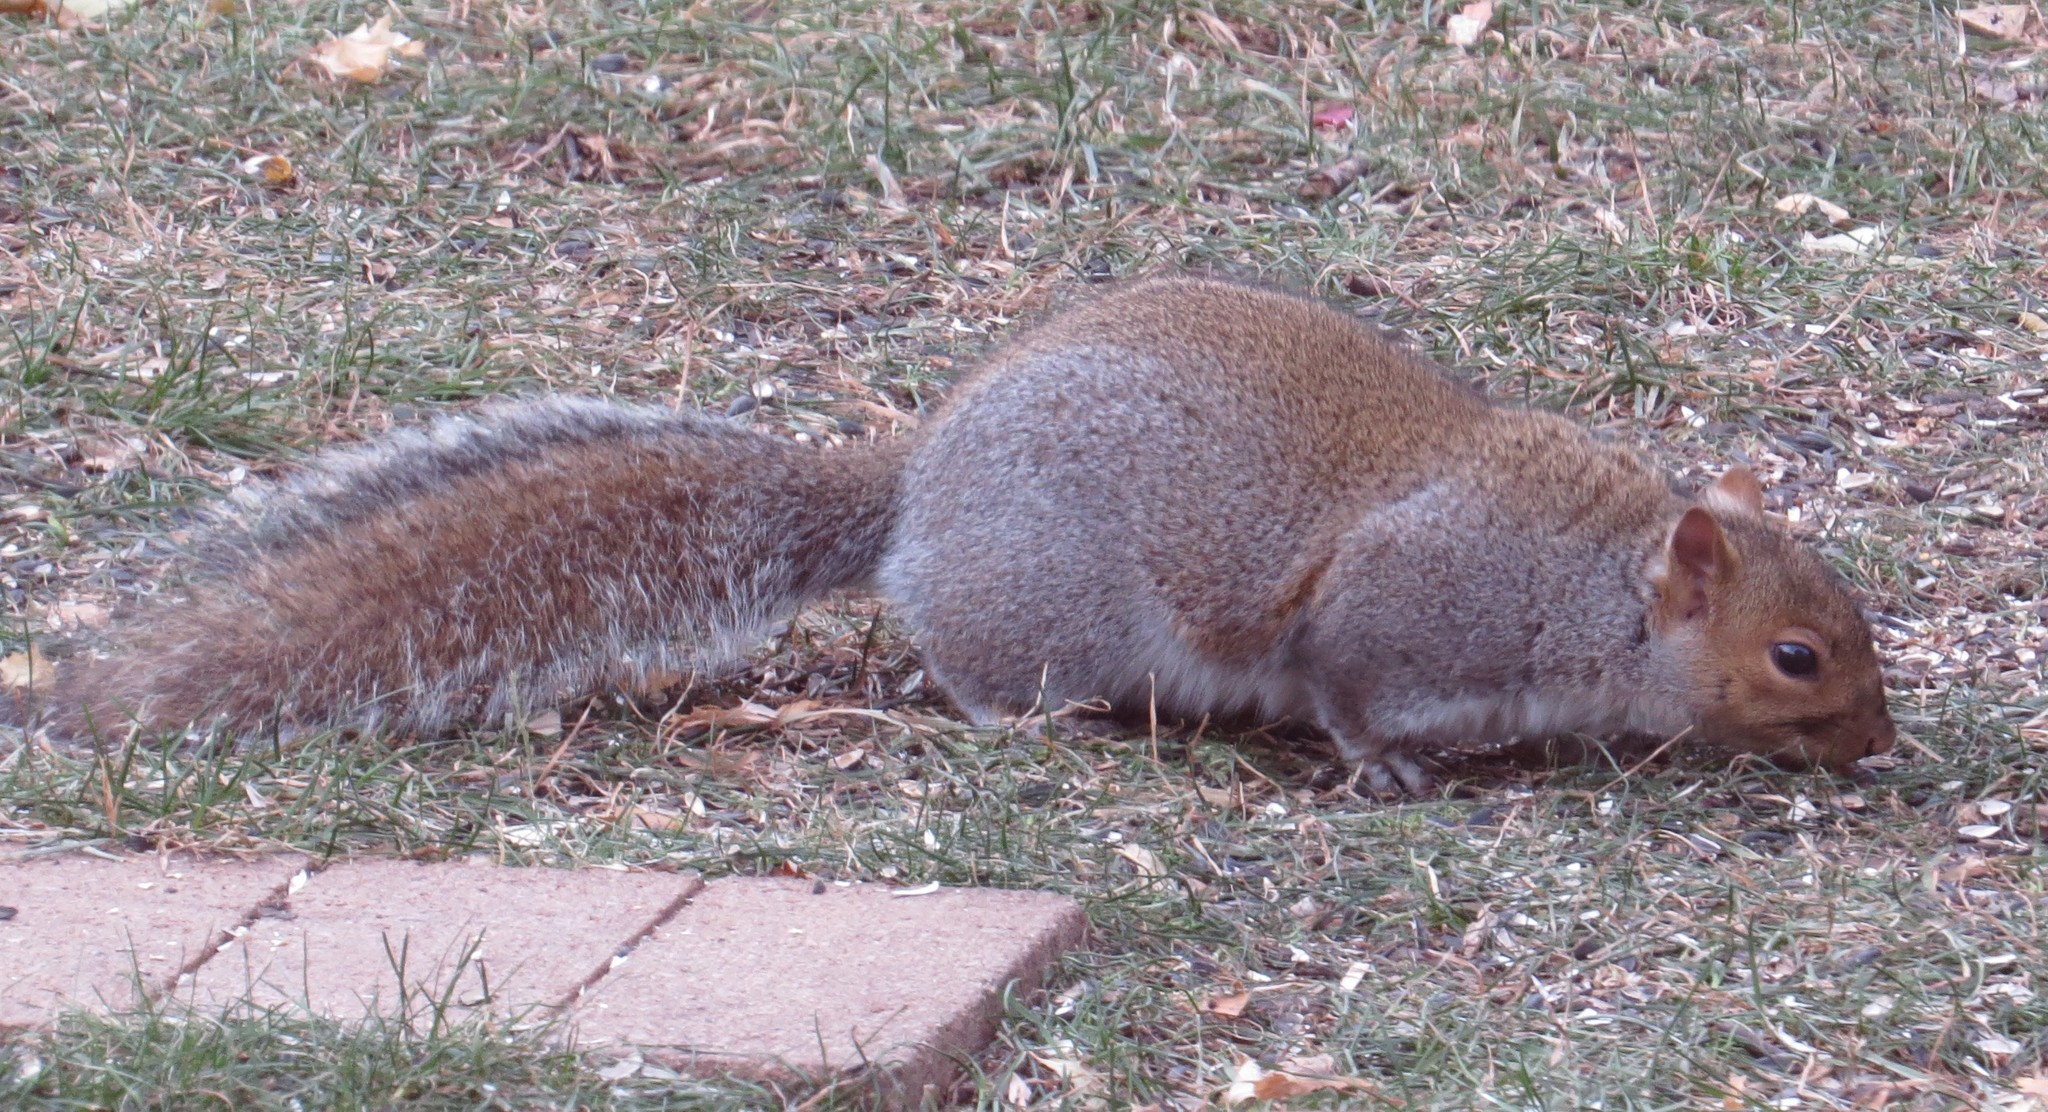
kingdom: Animalia
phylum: Chordata
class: Mammalia
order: Rodentia
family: Sciuridae
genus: Sciurus
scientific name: Sciurus carolinensis
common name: Eastern gray squirrel
